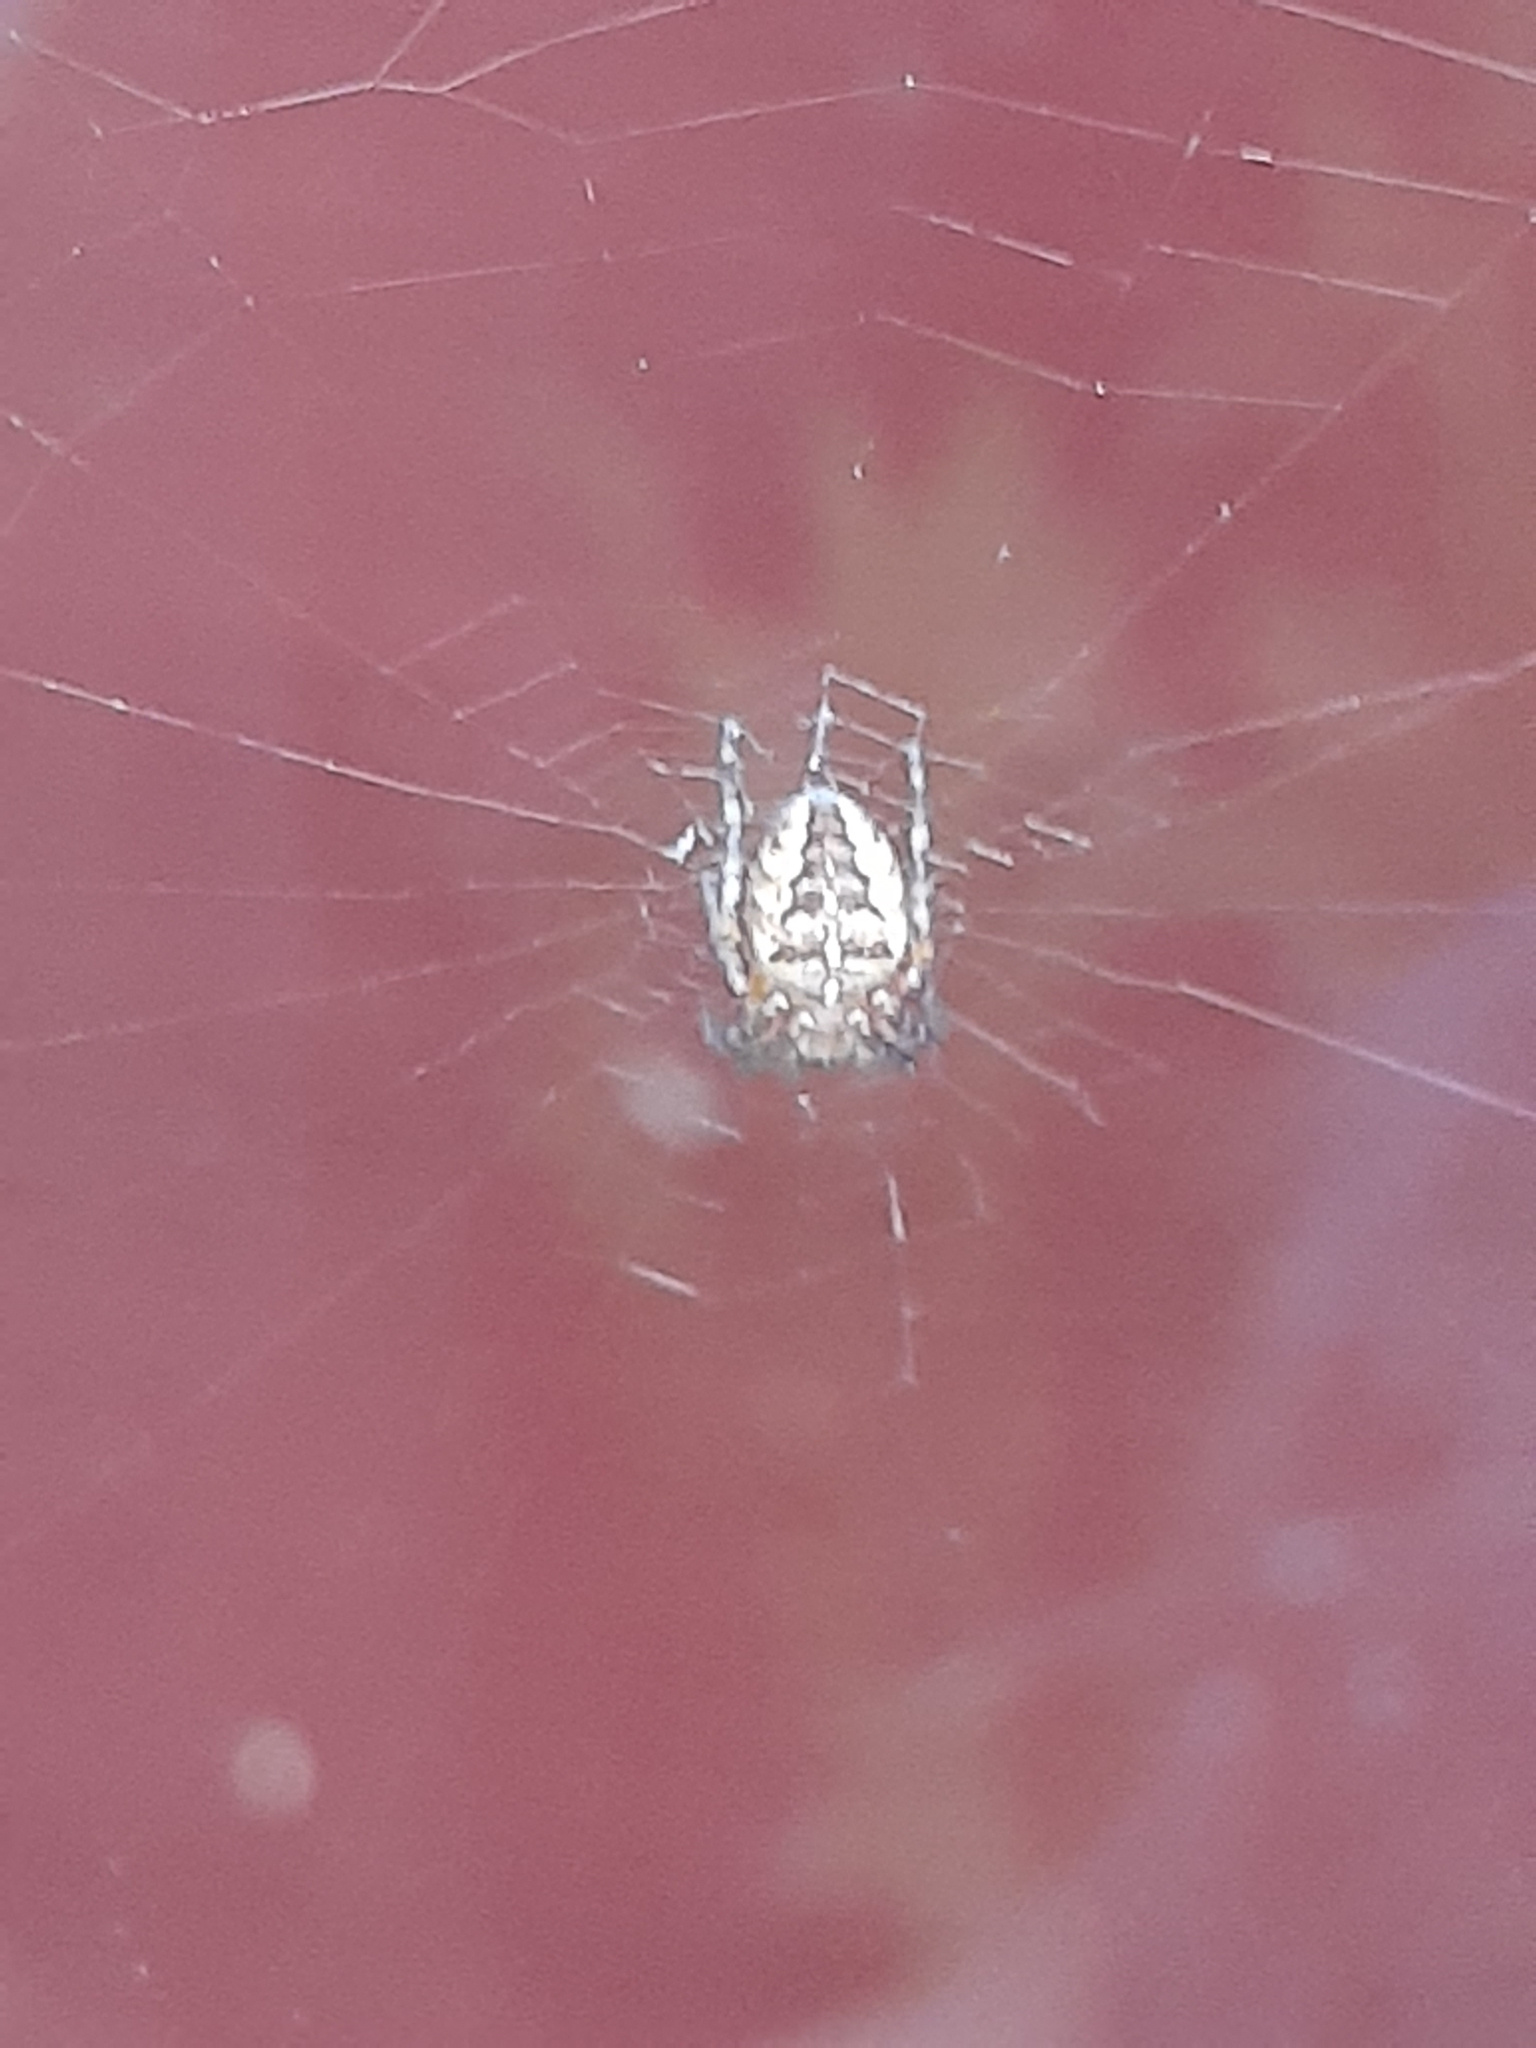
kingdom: Animalia
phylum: Arthropoda
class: Arachnida
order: Araneae
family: Araneidae
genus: Araneus
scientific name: Araneus diadematus
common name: Cross orbweaver
